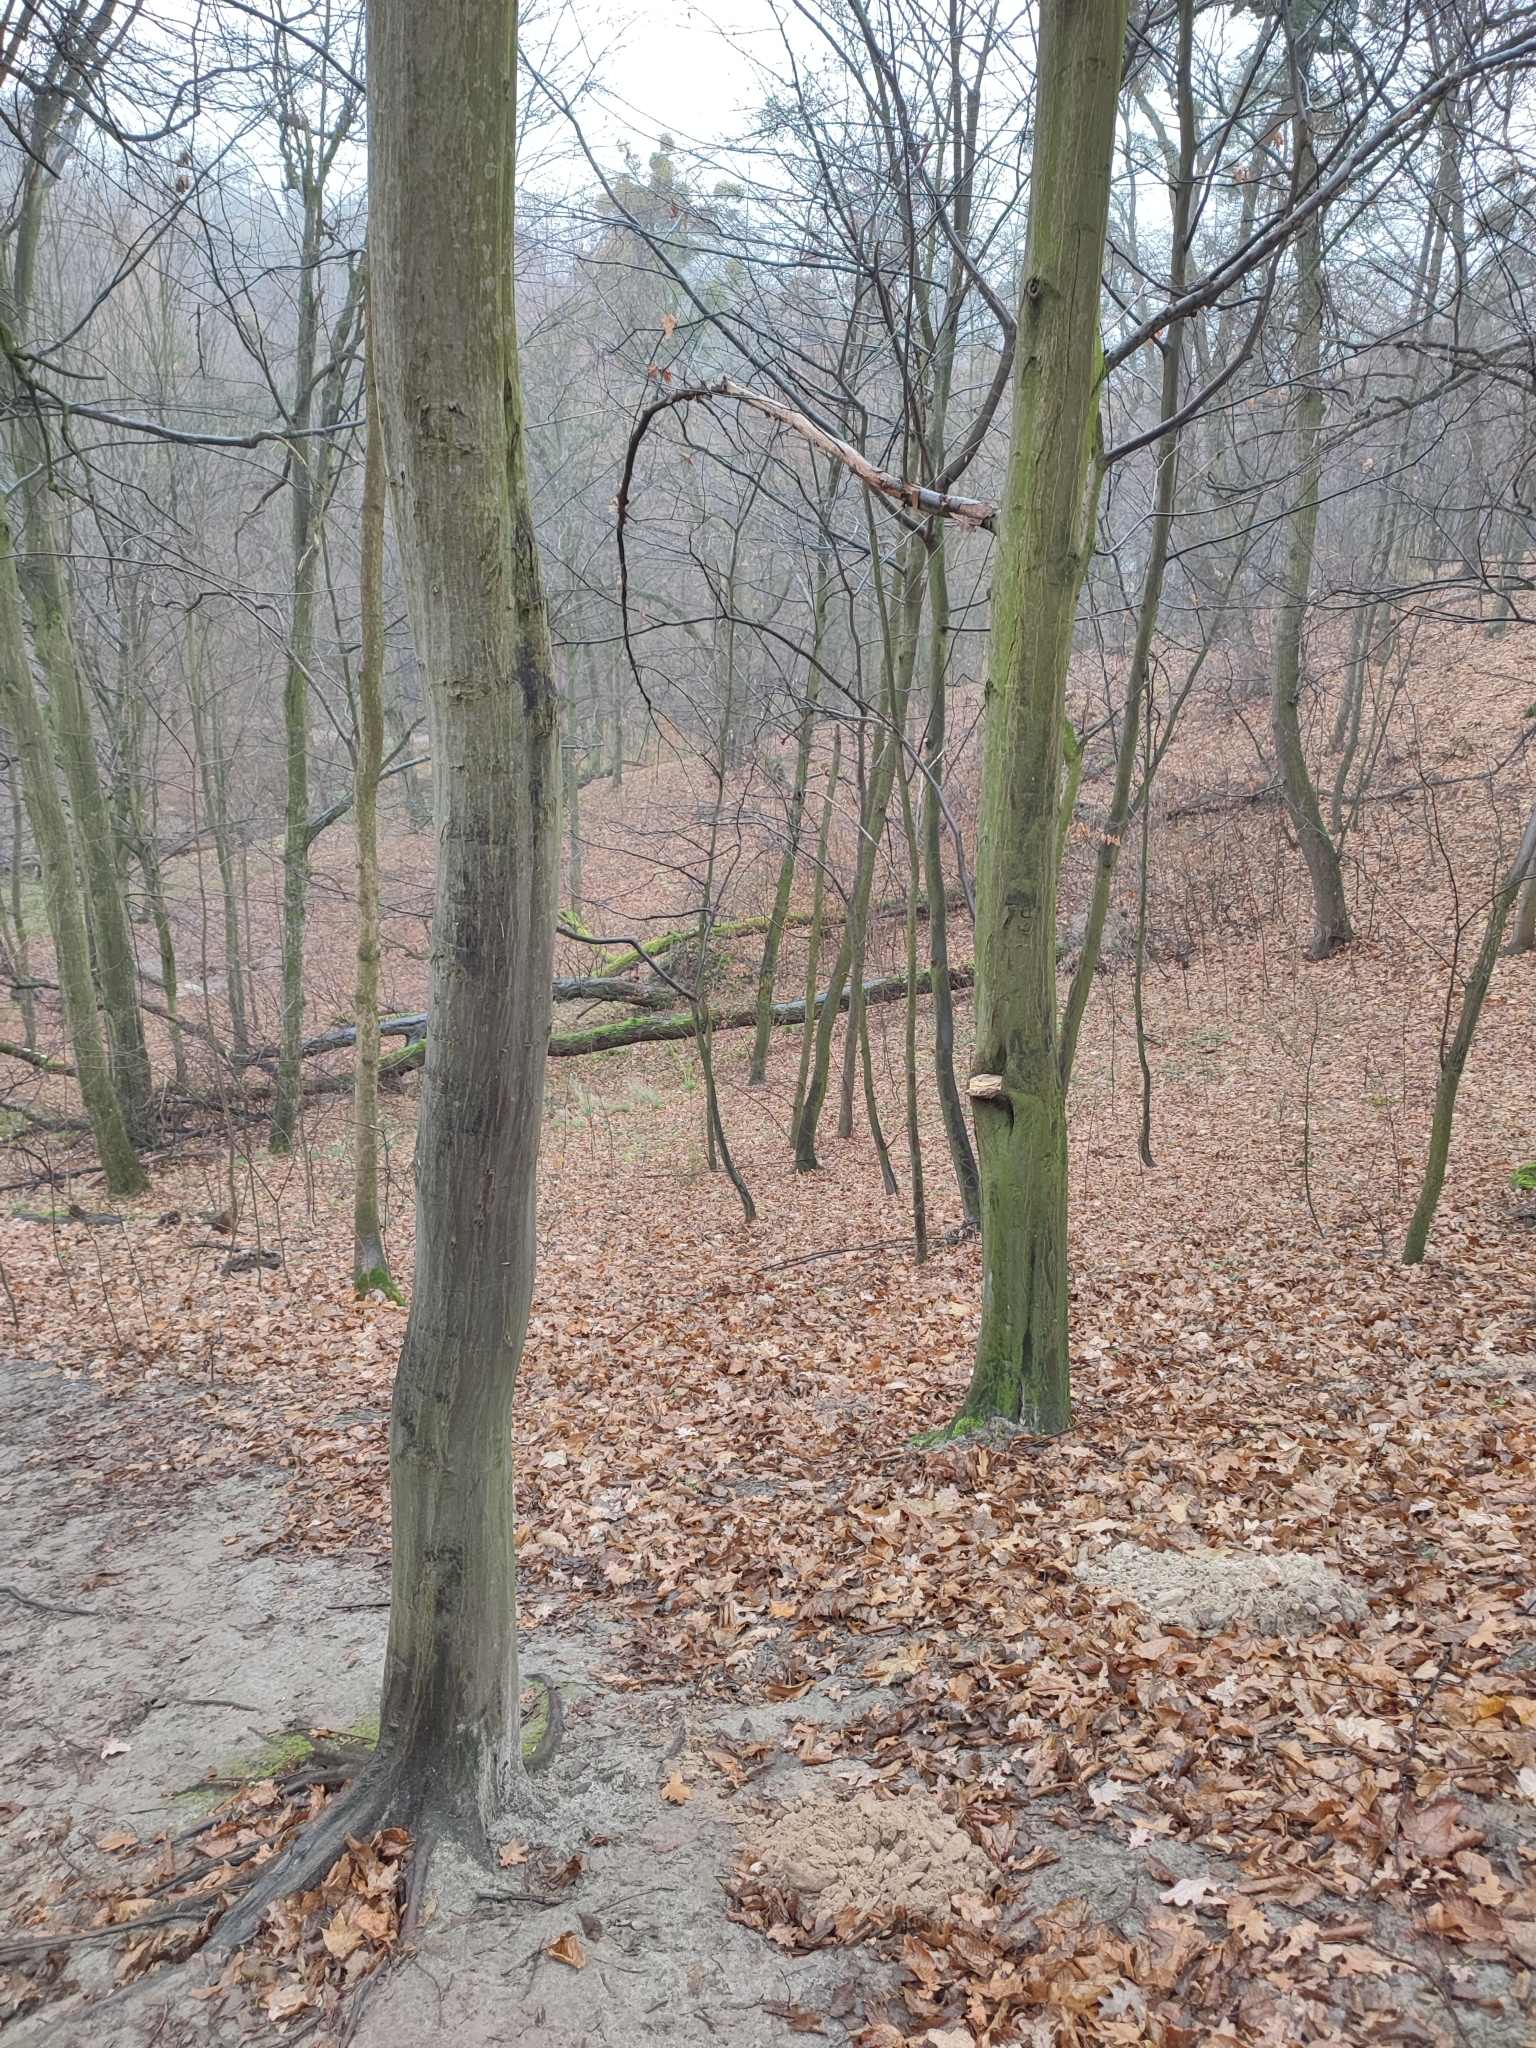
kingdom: Plantae
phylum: Tracheophyta
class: Magnoliopsida
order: Fagales
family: Betulaceae
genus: Carpinus
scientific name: Carpinus betulus
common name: Hornbeam
